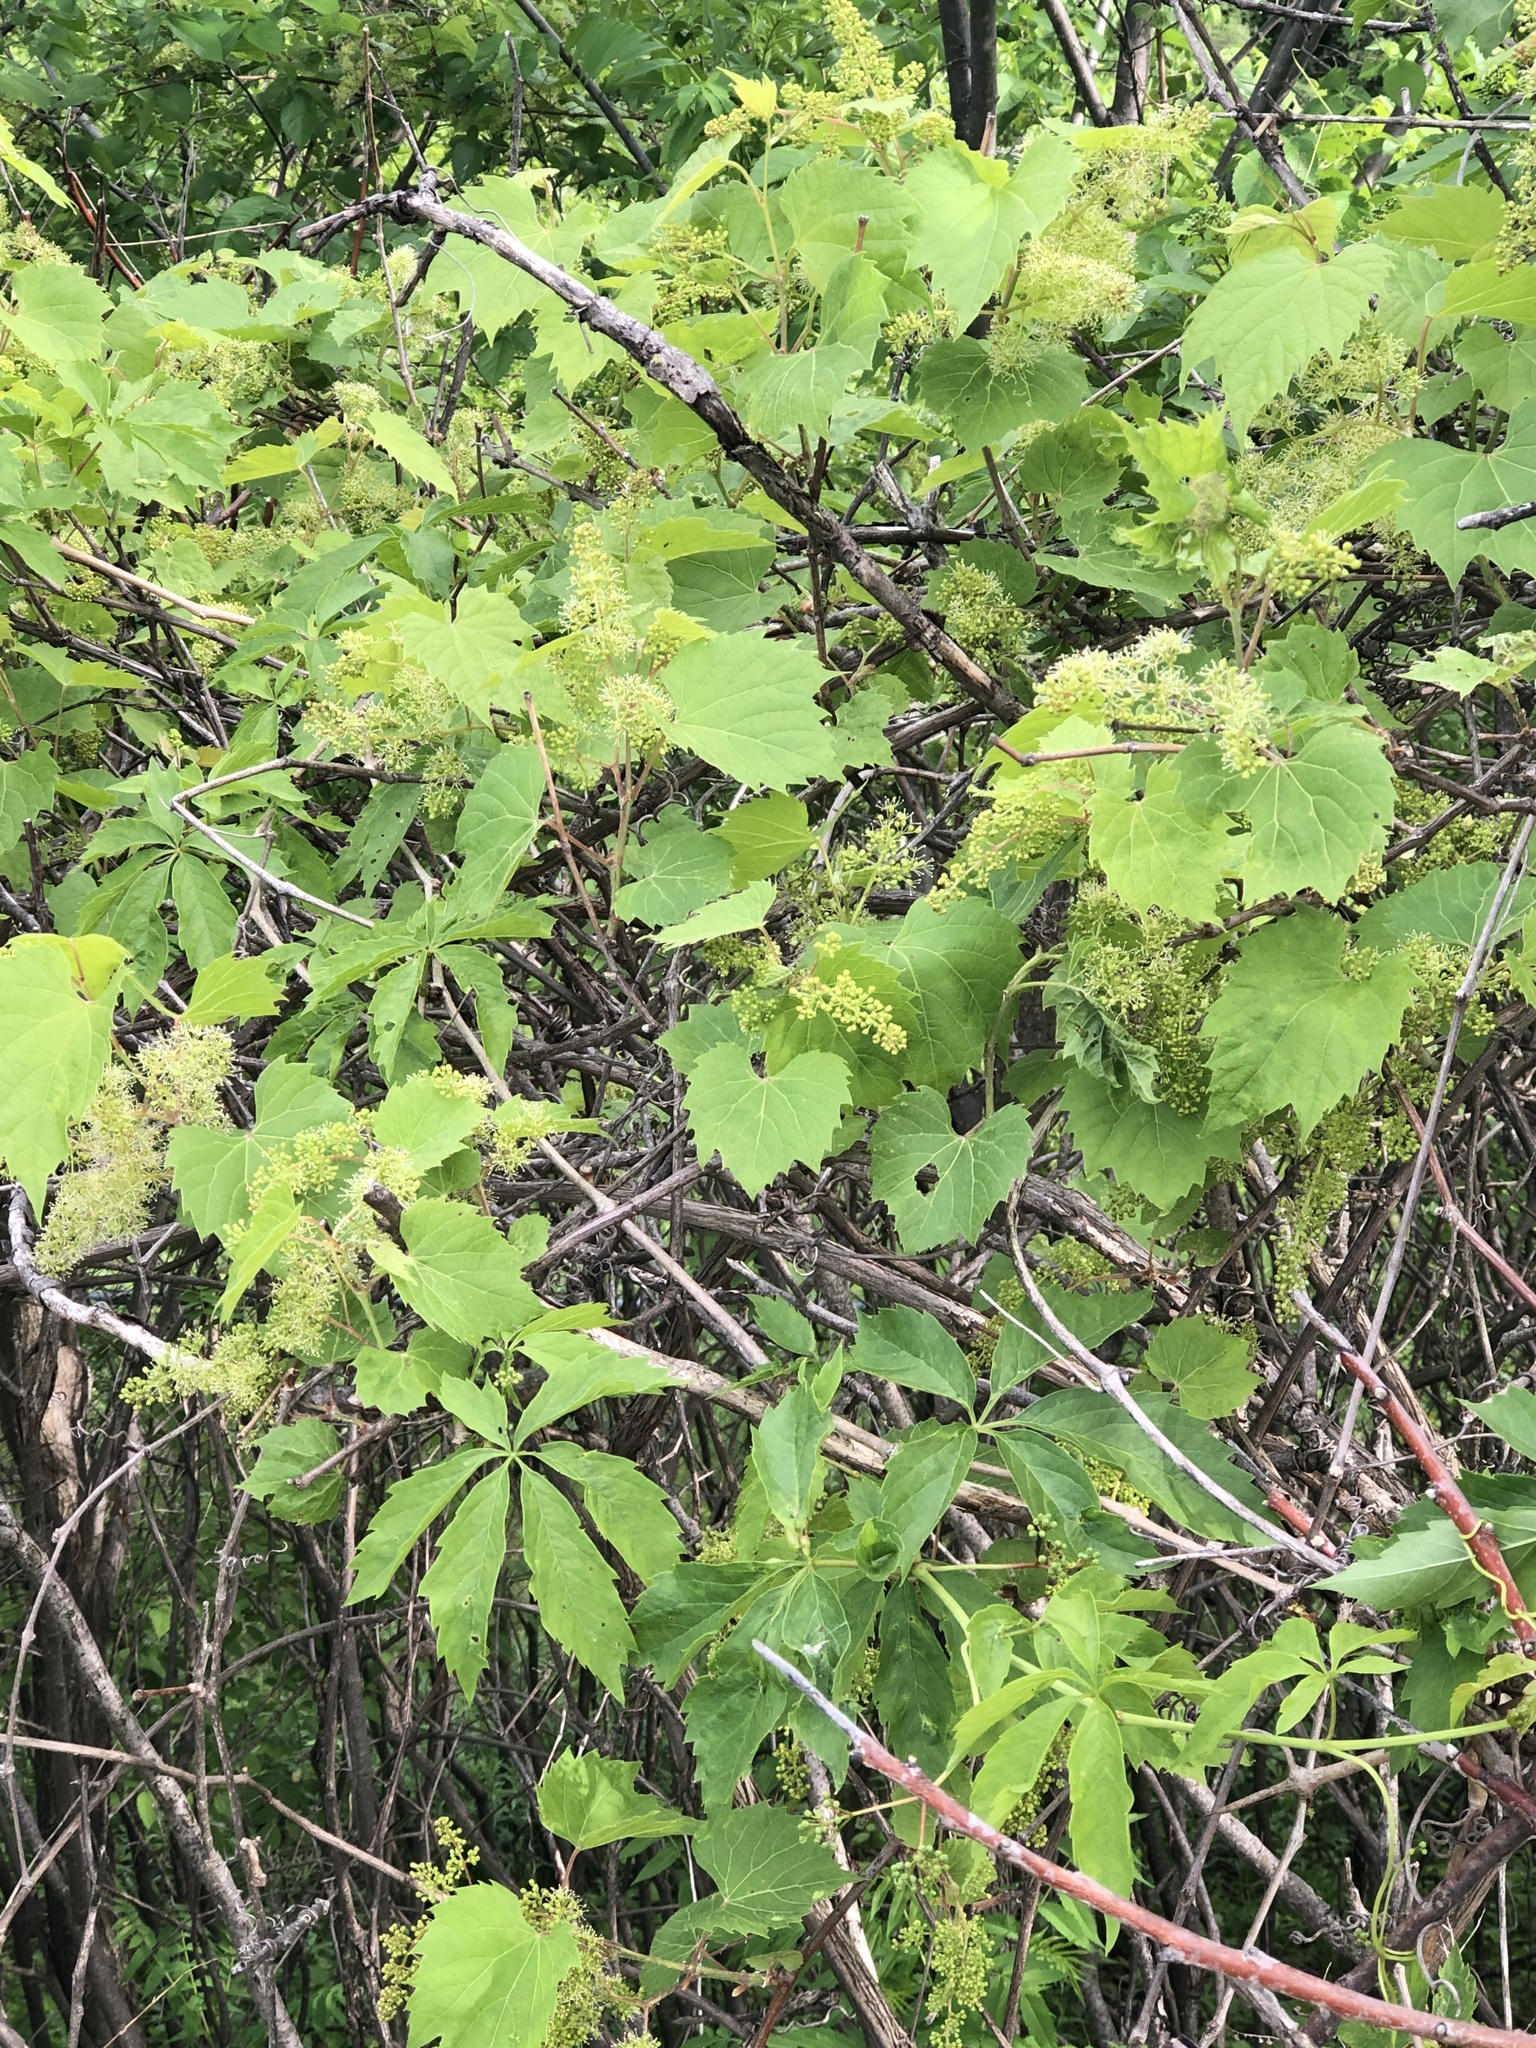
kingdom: Plantae
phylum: Tracheophyta
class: Magnoliopsida
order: Vitales
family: Vitaceae
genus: Vitis
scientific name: Vitis riparia
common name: Frost grape
